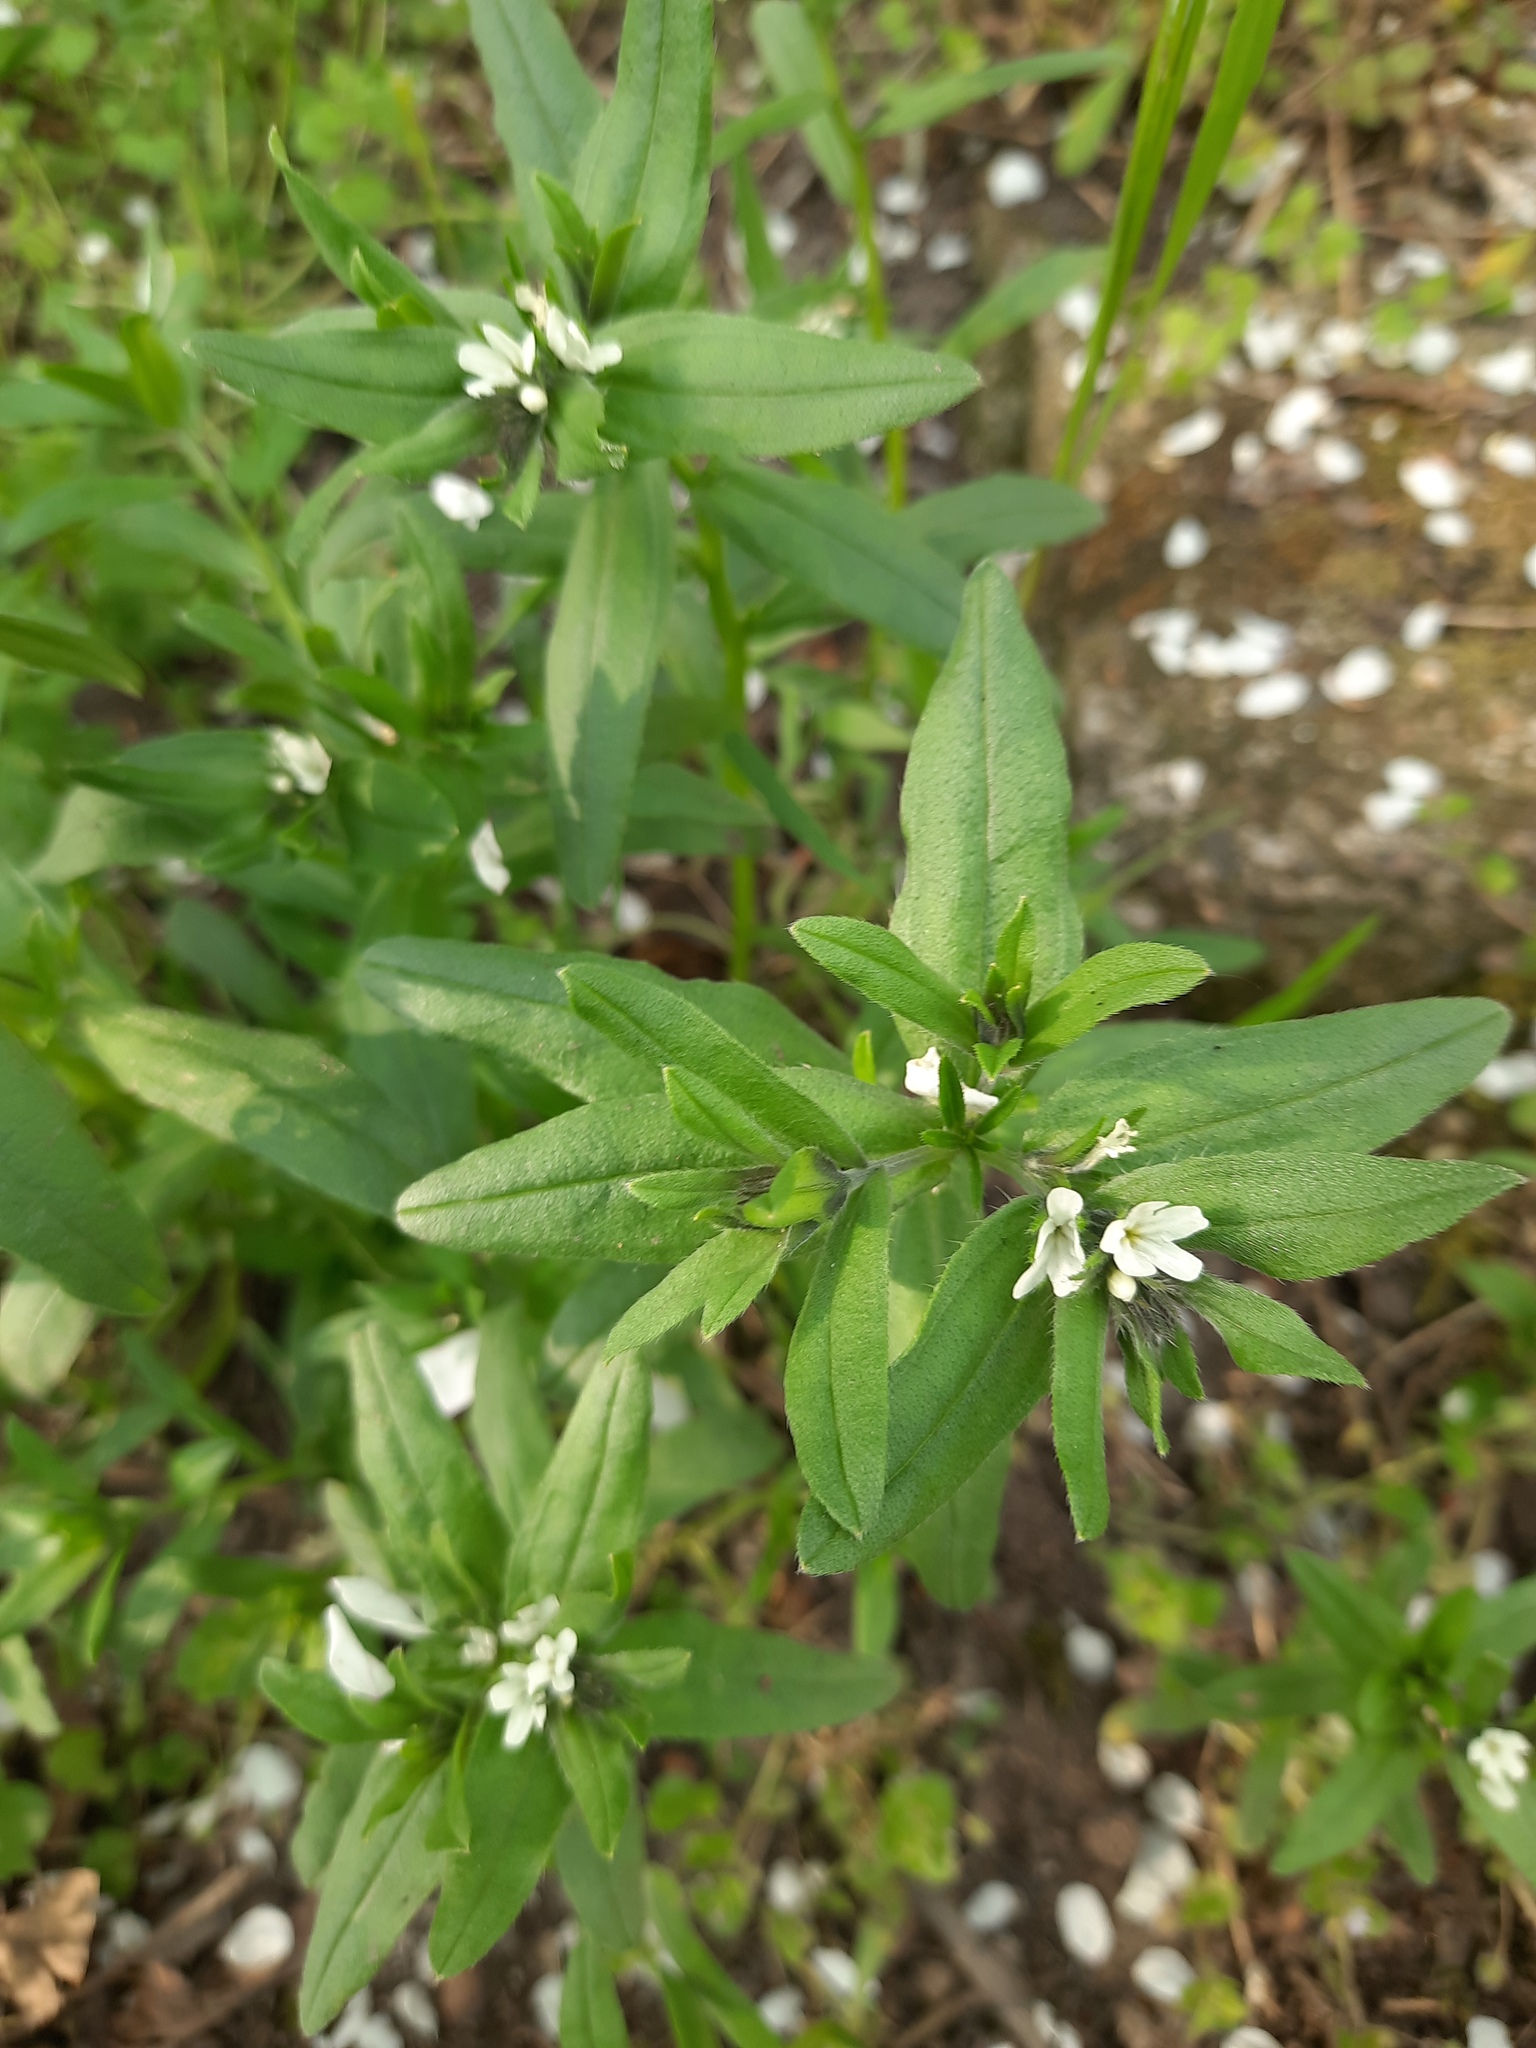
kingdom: Plantae
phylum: Tracheophyta
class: Magnoliopsida
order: Boraginales
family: Boraginaceae
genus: Buglossoides
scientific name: Buglossoides arvensis
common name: Corn gromwell
